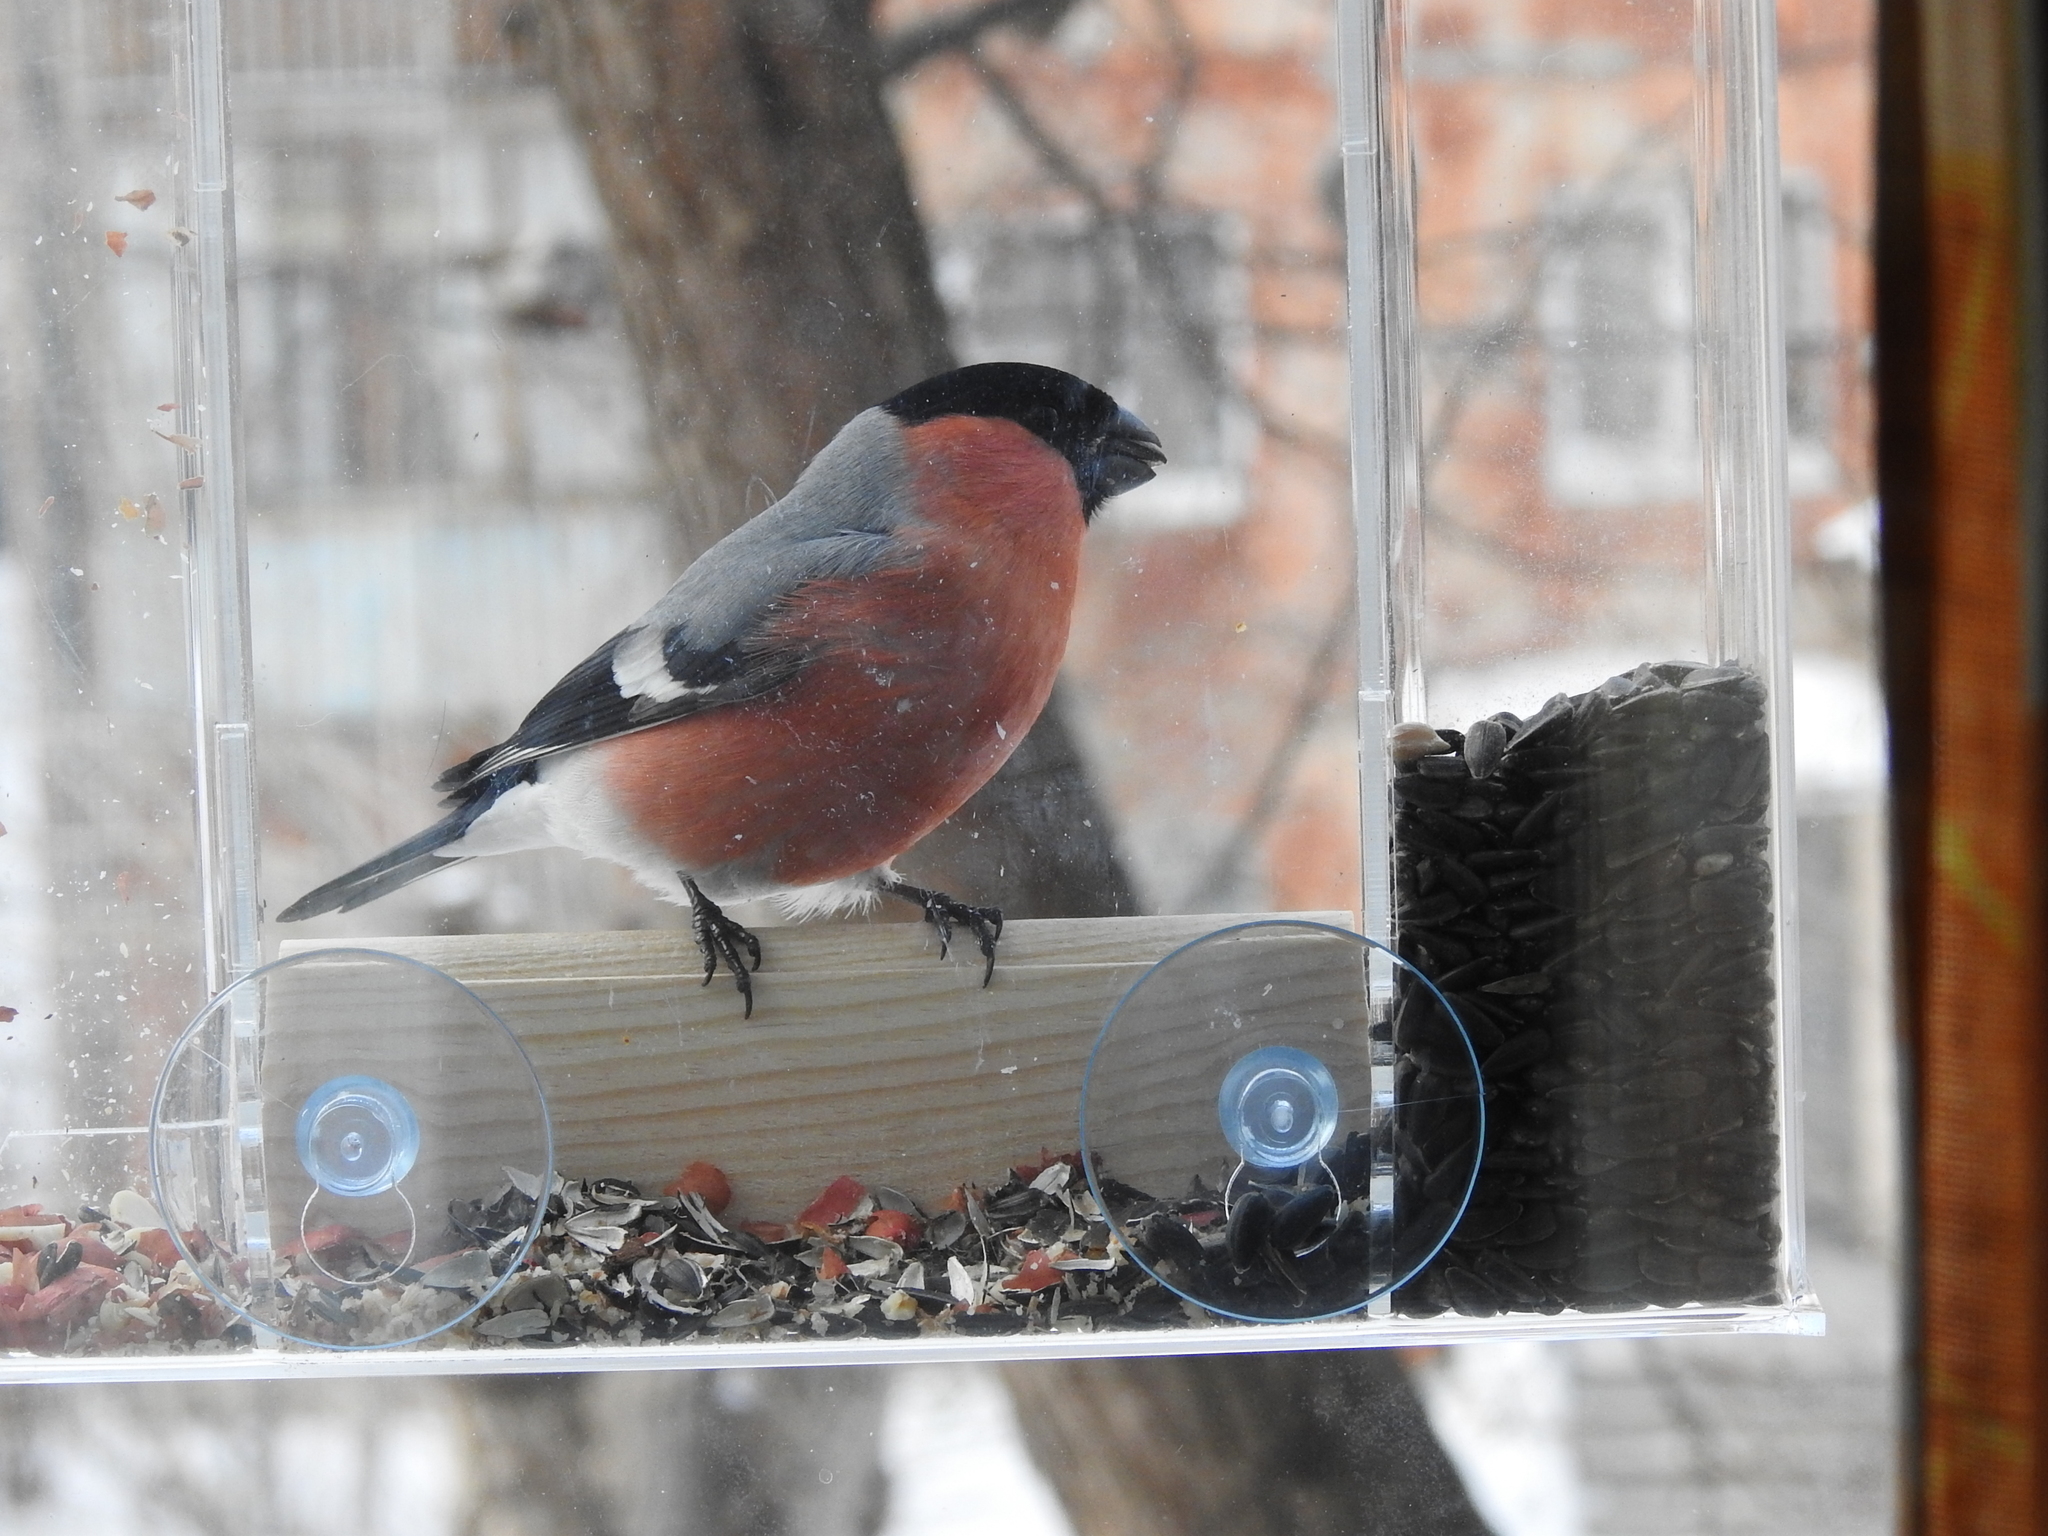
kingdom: Animalia
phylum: Chordata
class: Aves
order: Passeriformes
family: Fringillidae
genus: Pyrrhula
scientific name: Pyrrhula pyrrhula
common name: Eurasian bullfinch
